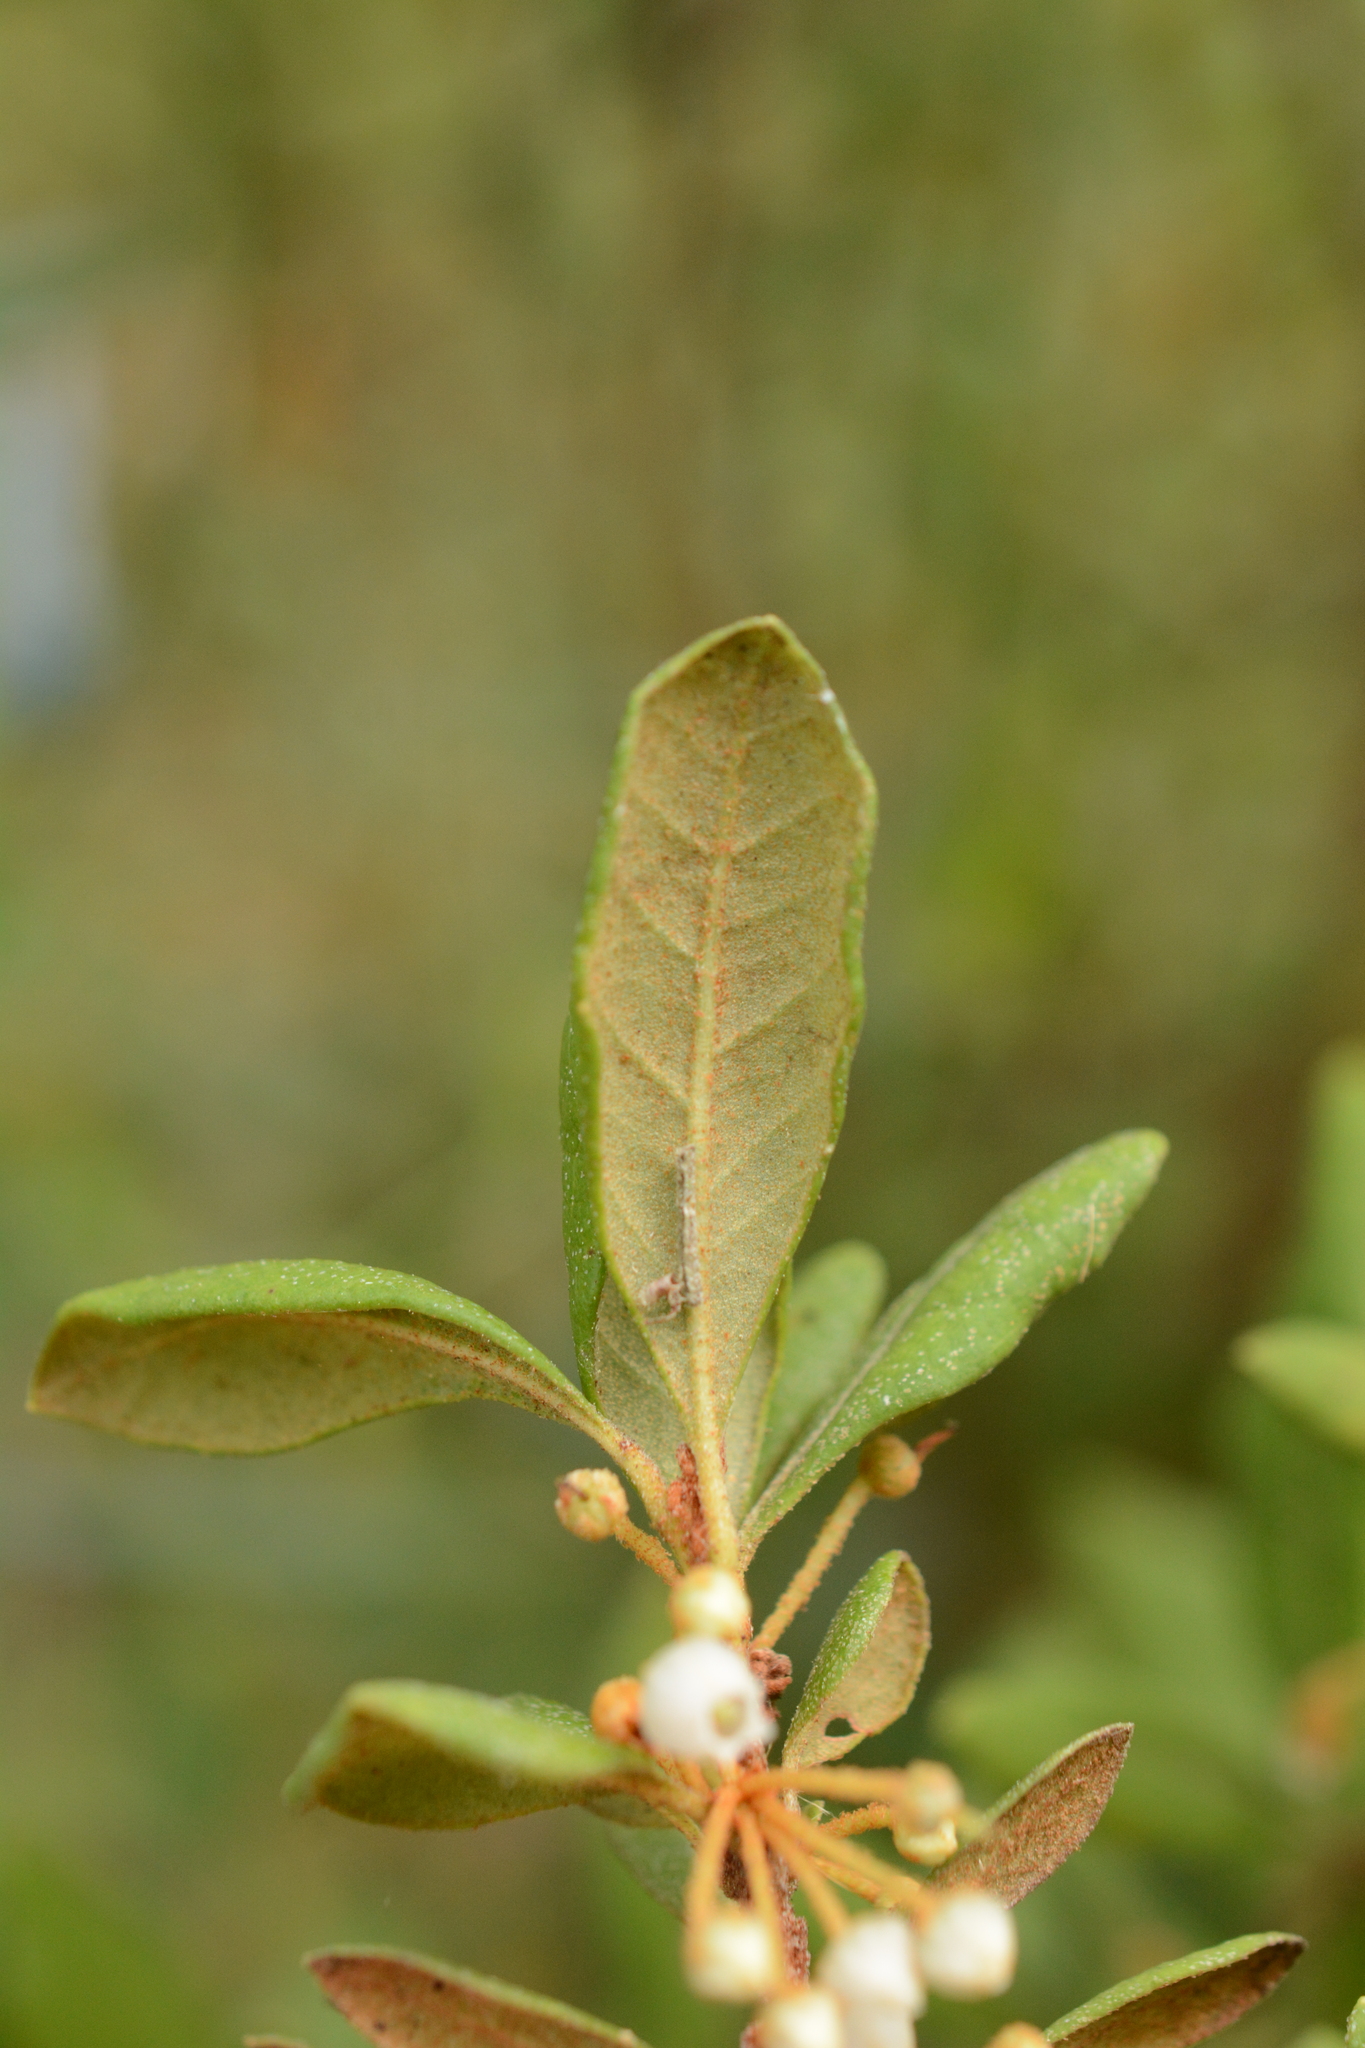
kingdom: Plantae
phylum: Tracheophyta
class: Magnoliopsida
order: Ericales
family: Ericaceae
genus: Lyonia
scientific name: Lyonia ferruginea
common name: Rusty lyonia
